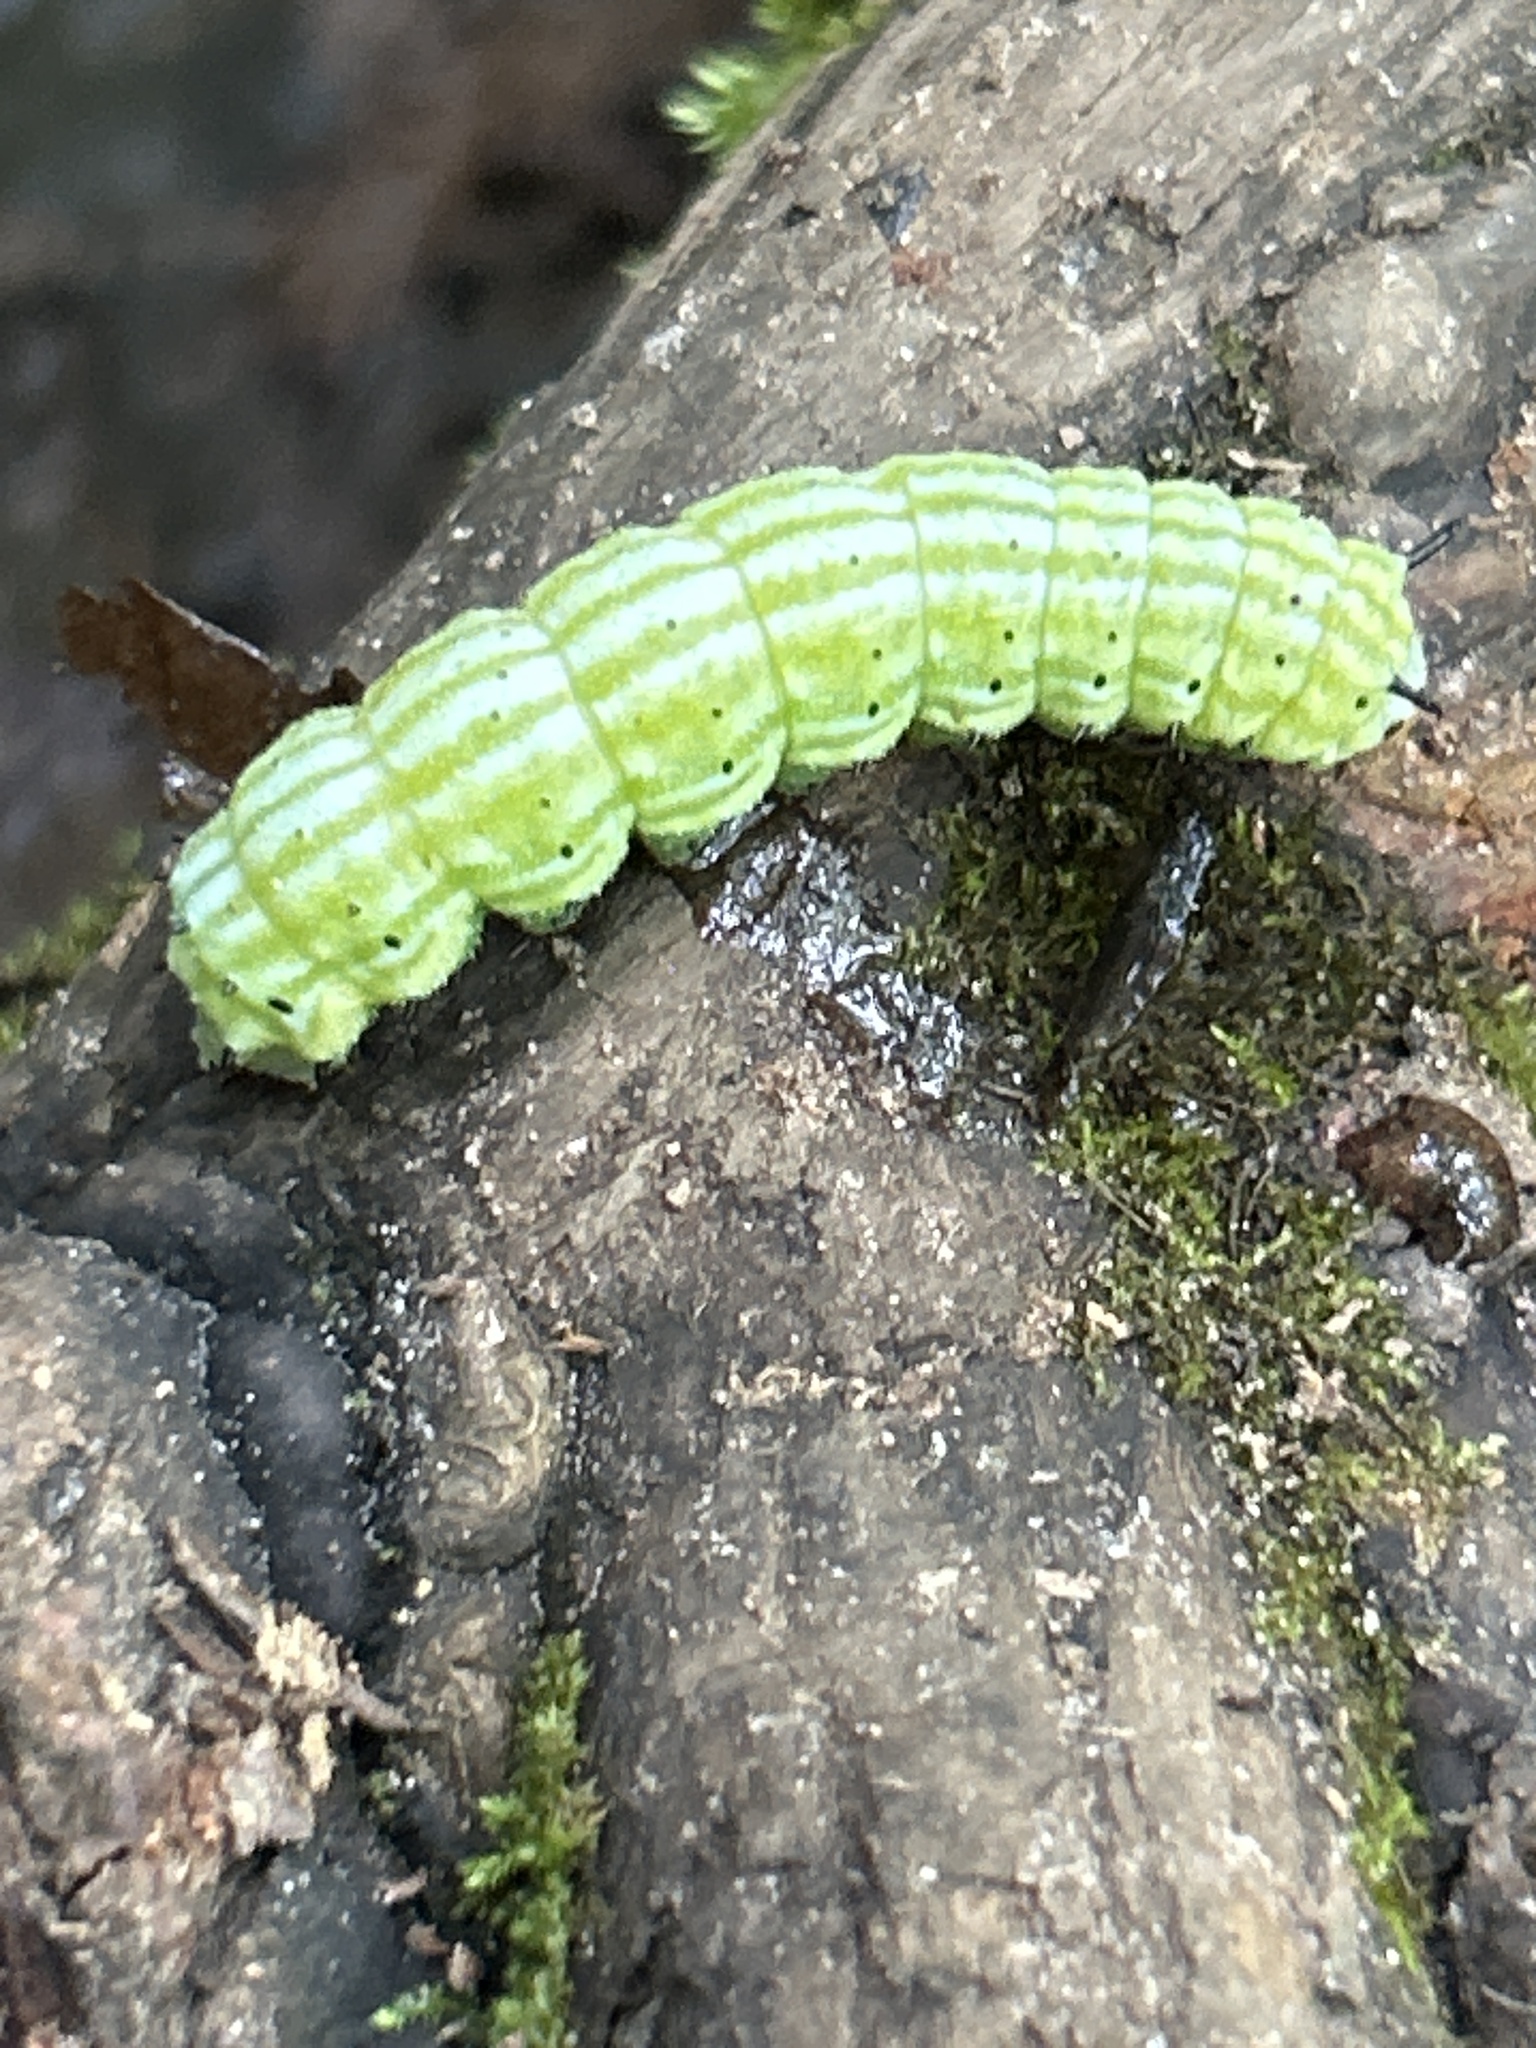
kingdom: Animalia
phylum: Arthropoda
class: Insecta
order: Lepidoptera
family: Saturniidae
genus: Dryocampa
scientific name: Dryocampa rubicunda
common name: Rosy maple moth
